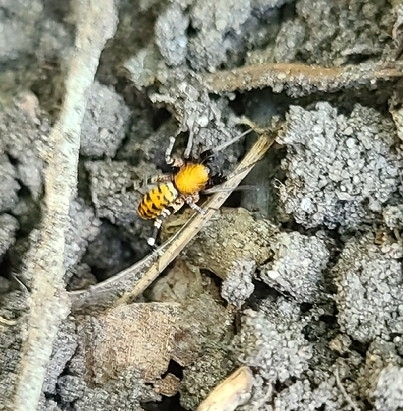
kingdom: Animalia
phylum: Arthropoda
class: Arachnida
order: Araneae
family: Corinnidae
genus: Castianeira
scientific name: Castianeira amoena
